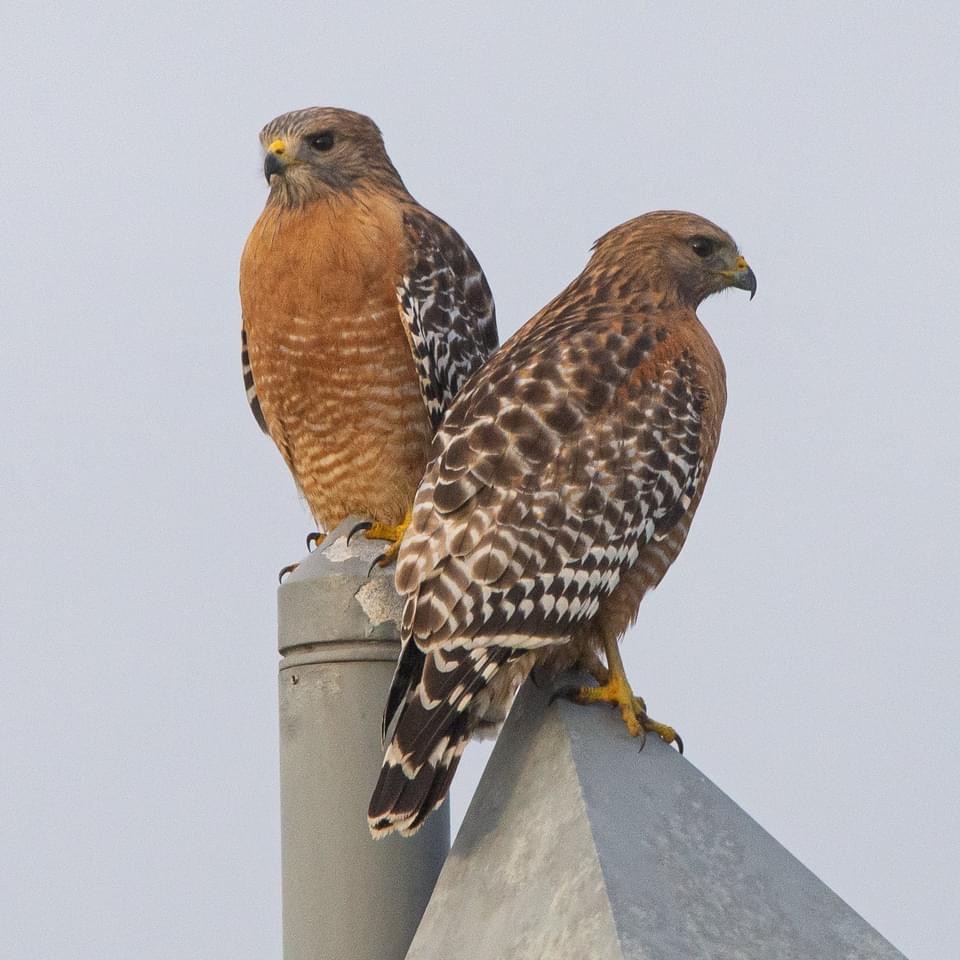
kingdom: Animalia
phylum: Chordata
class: Aves
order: Accipitriformes
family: Accipitridae
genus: Buteo
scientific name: Buteo lineatus
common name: Red-shouldered hawk
